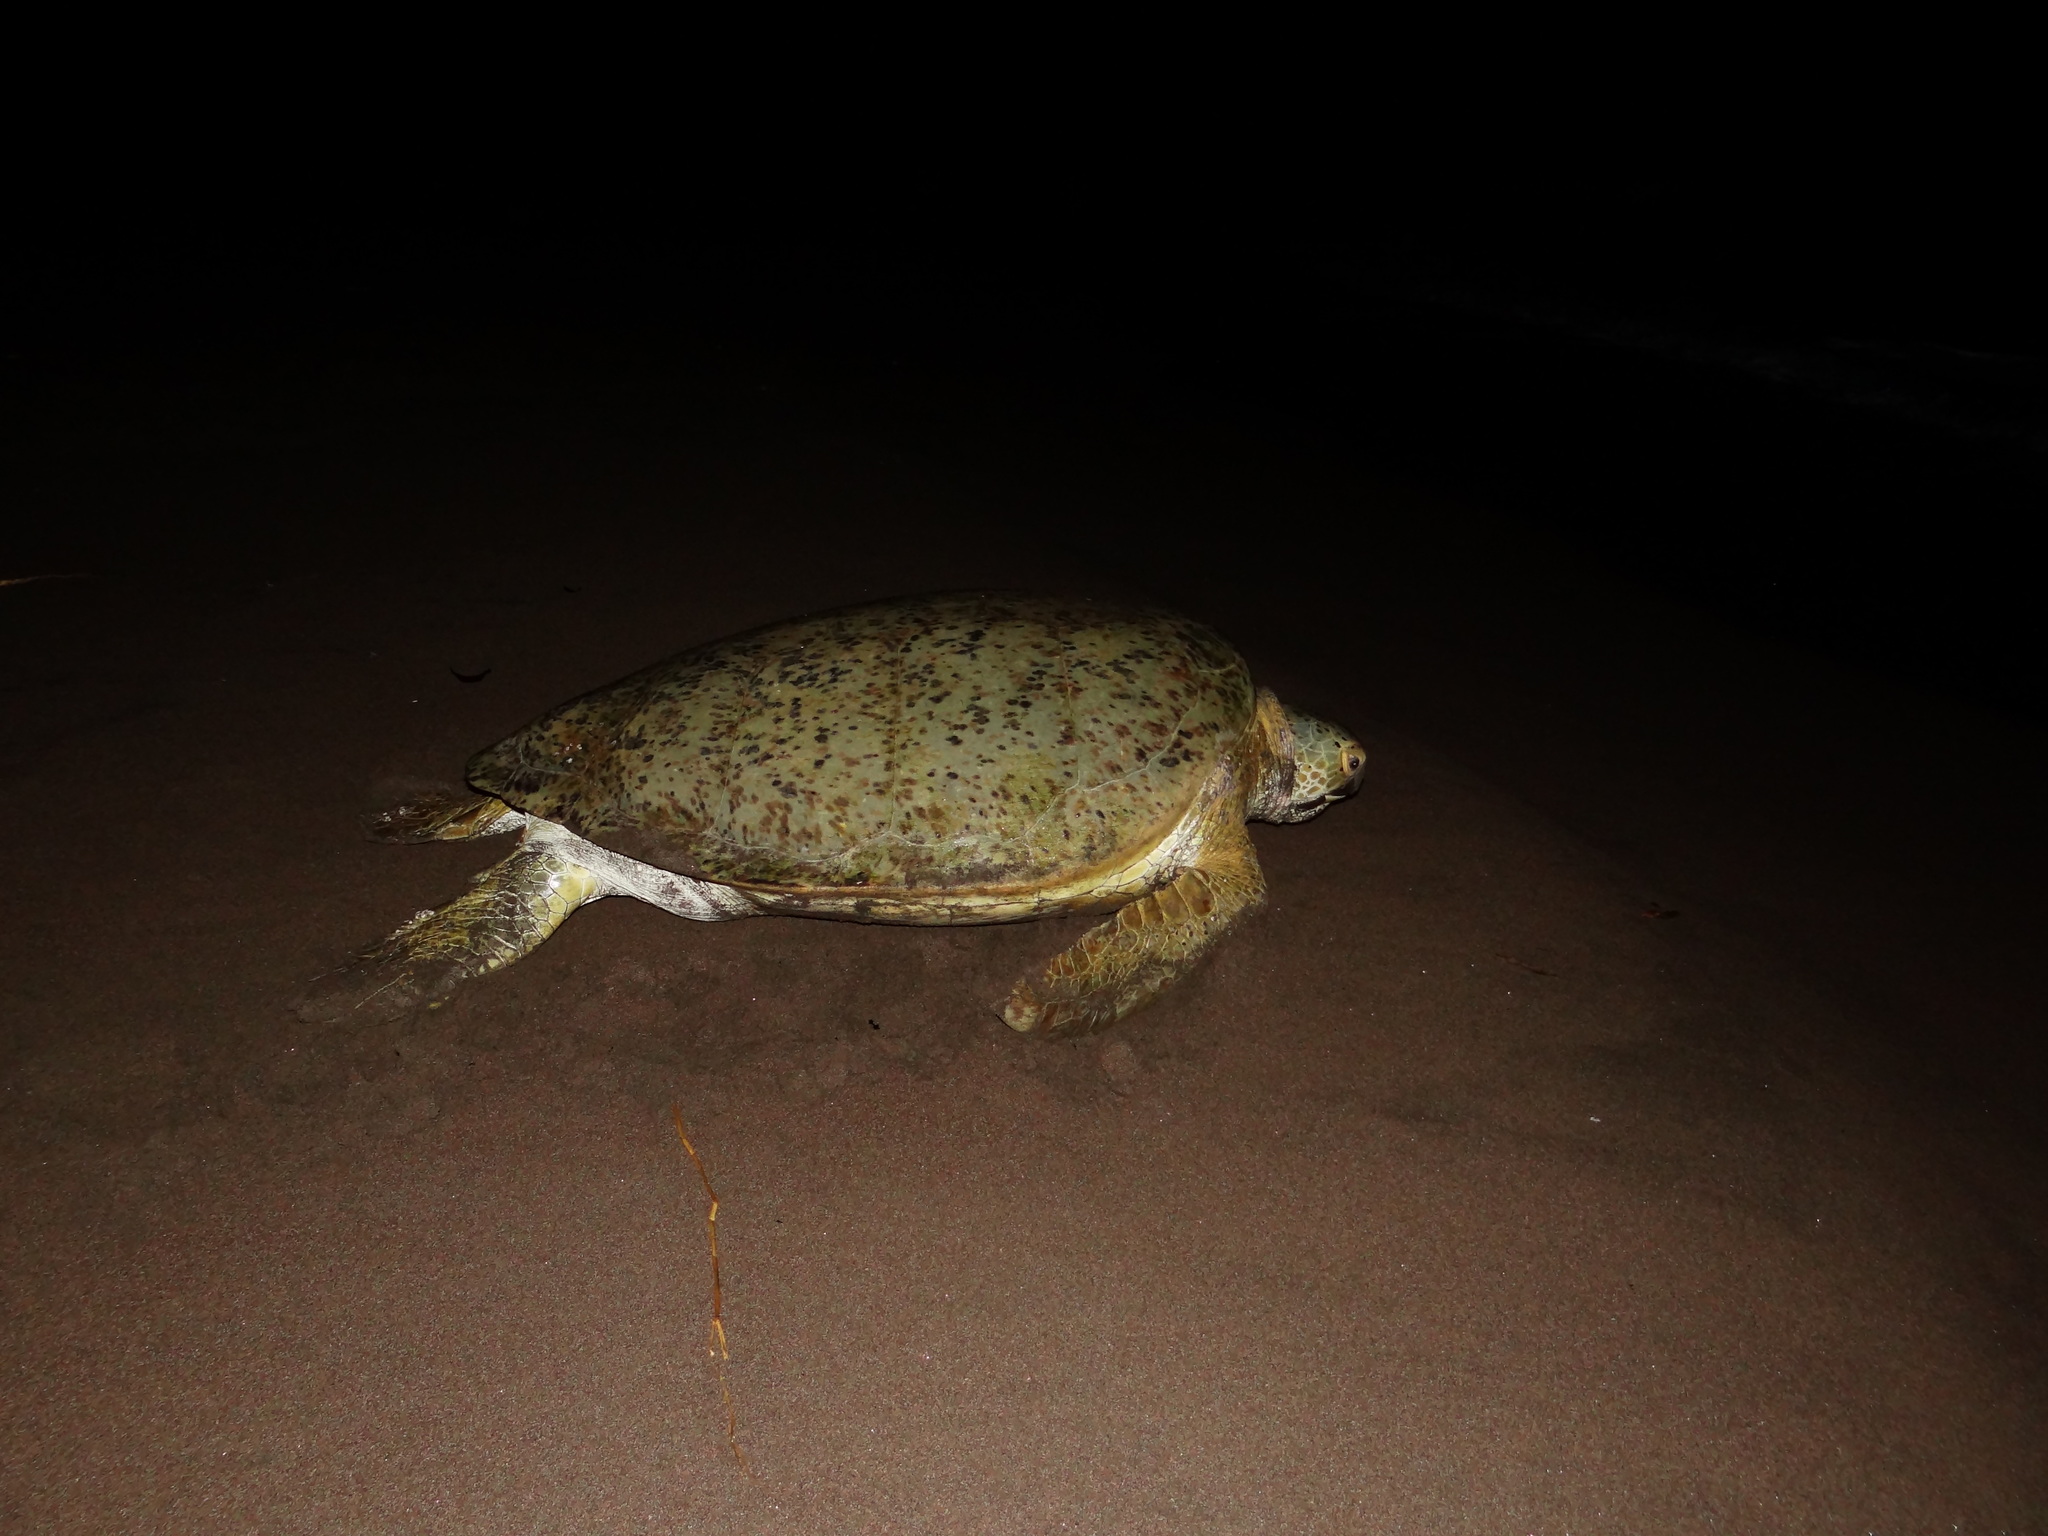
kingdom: Animalia
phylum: Chordata
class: Testudines
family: Cheloniidae
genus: Chelonia
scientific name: Chelonia mydas
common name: Green turtle
